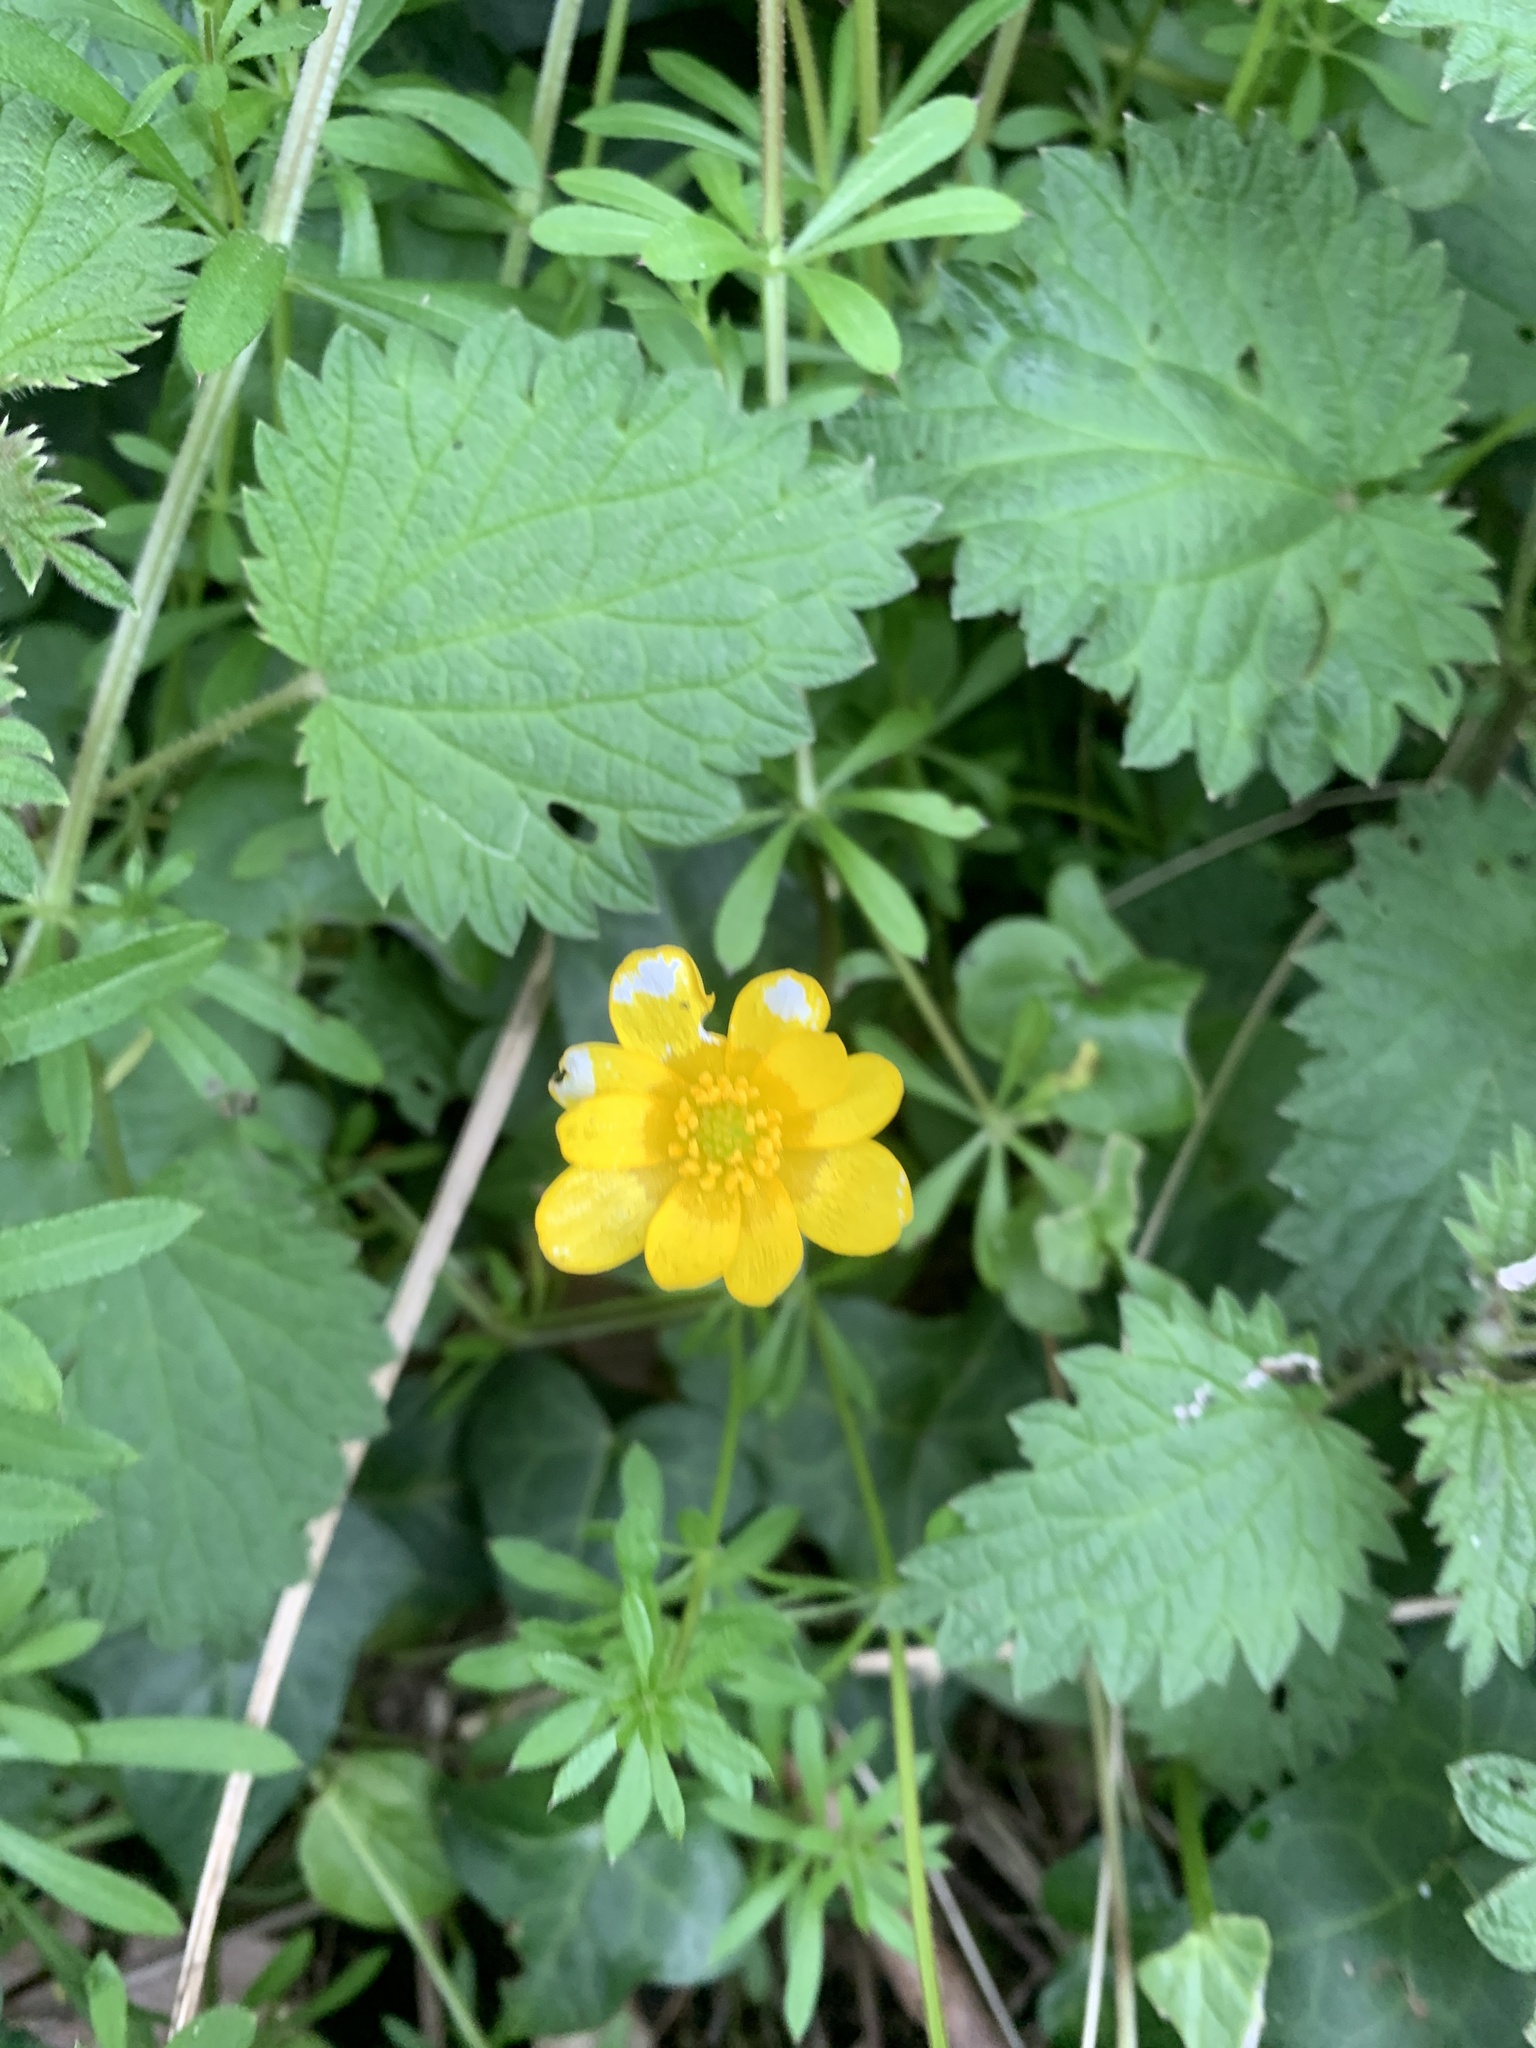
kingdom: Plantae
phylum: Tracheophyta
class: Magnoliopsida
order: Ranunculales
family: Ranunculaceae
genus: Ficaria
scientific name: Ficaria verna
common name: Lesser celandine
